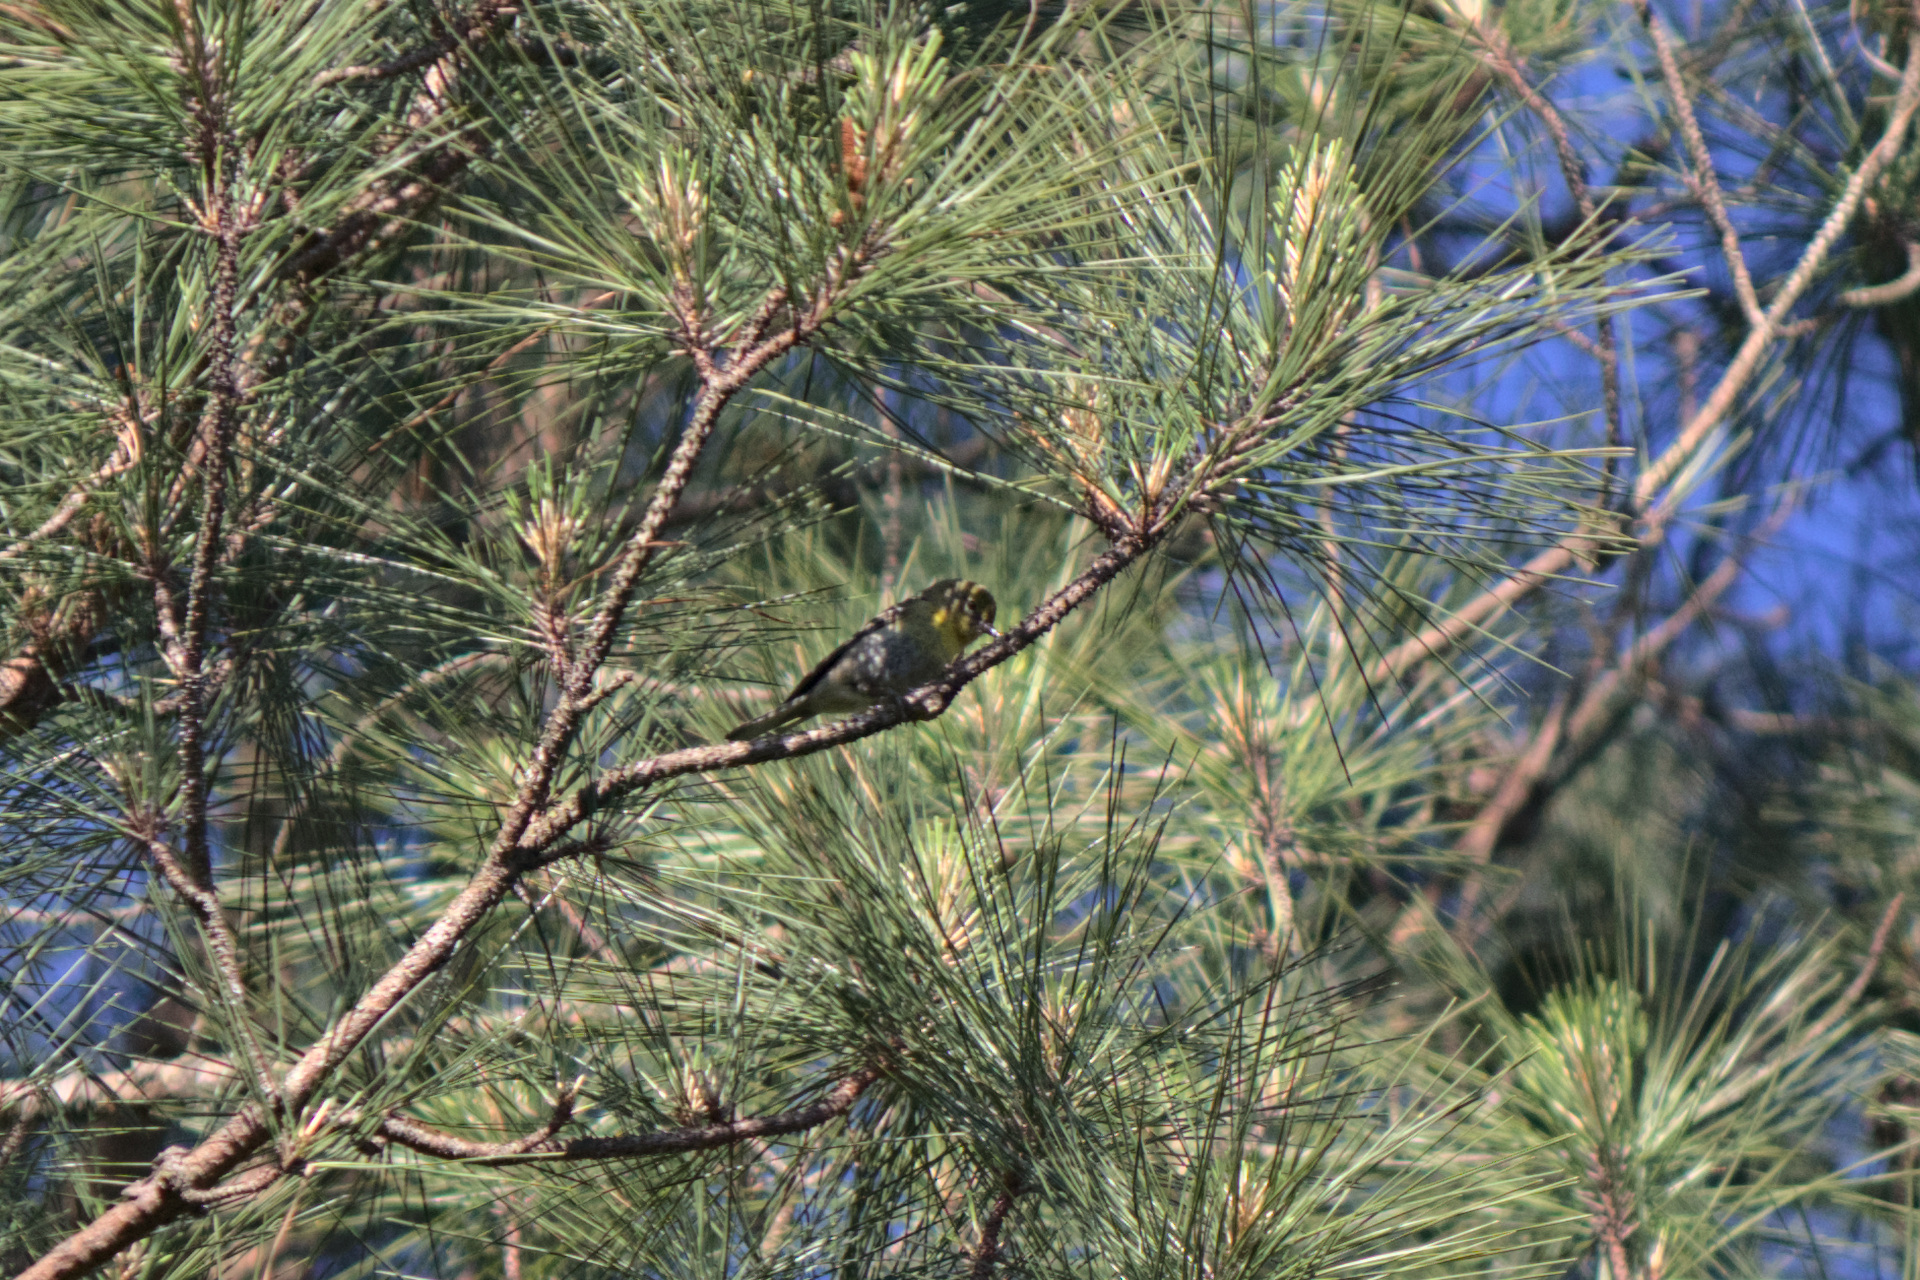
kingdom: Animalia
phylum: Chordata
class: Aves
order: Passeriformes
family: Parulidae
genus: Setophaga
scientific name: Setophaga pinus
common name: Pine warbler
